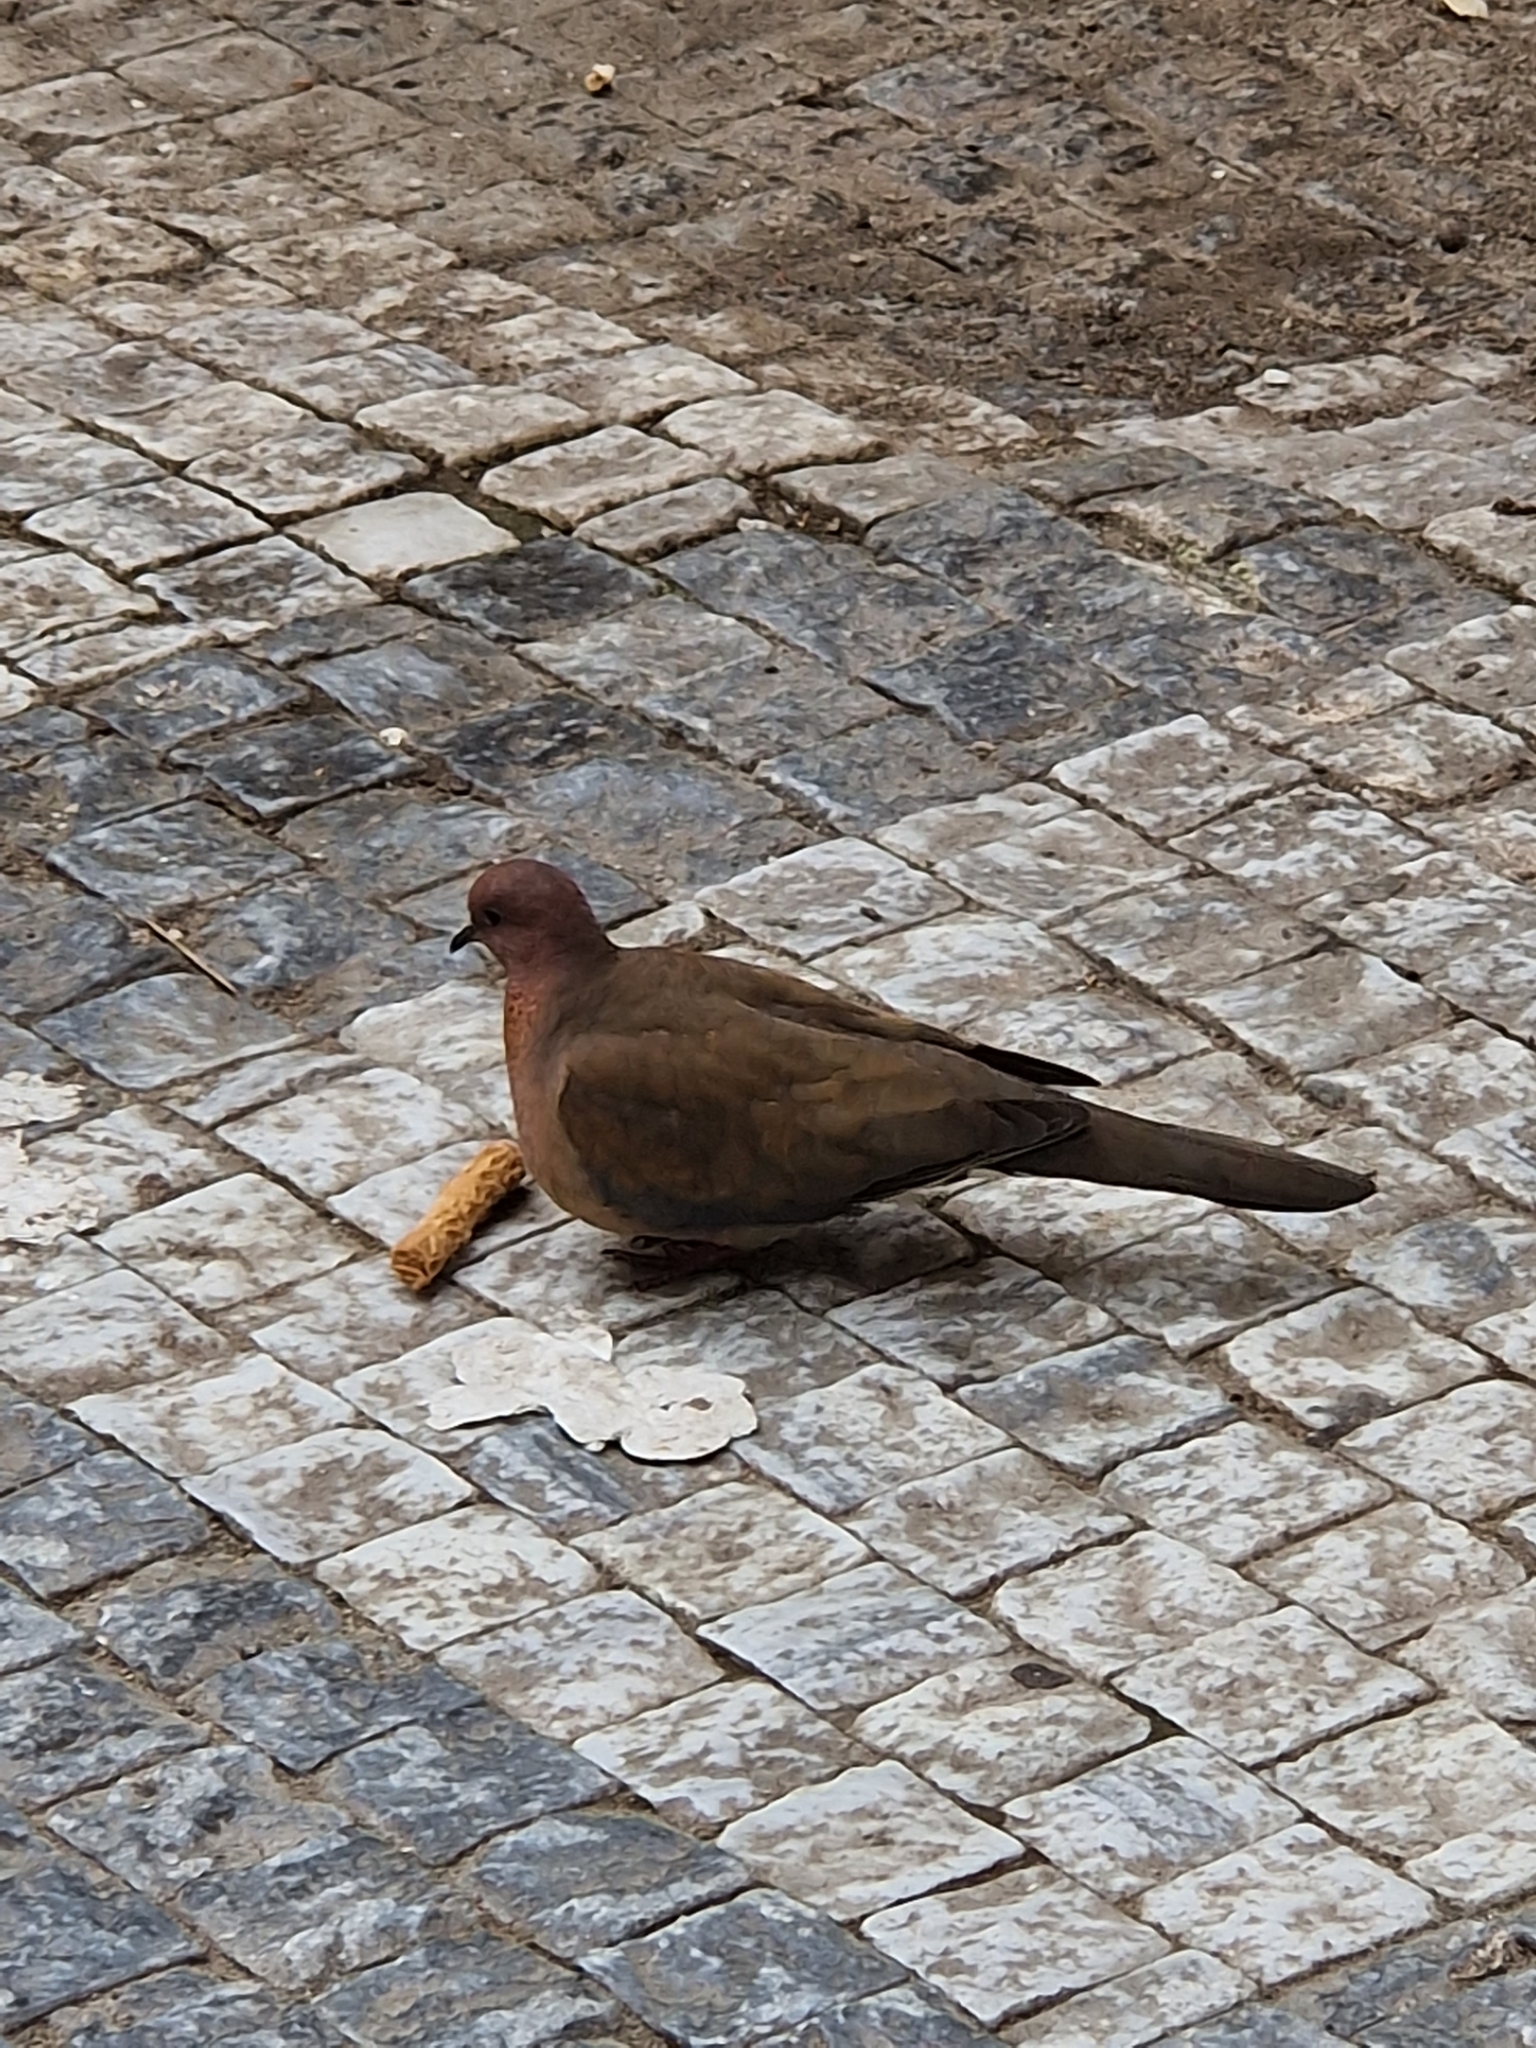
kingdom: Animalia
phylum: Chordata
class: Aves
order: Columbiformes
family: Columbidae
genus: Spilopelia
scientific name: Spilopelia senegalensis
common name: Laughing dove
